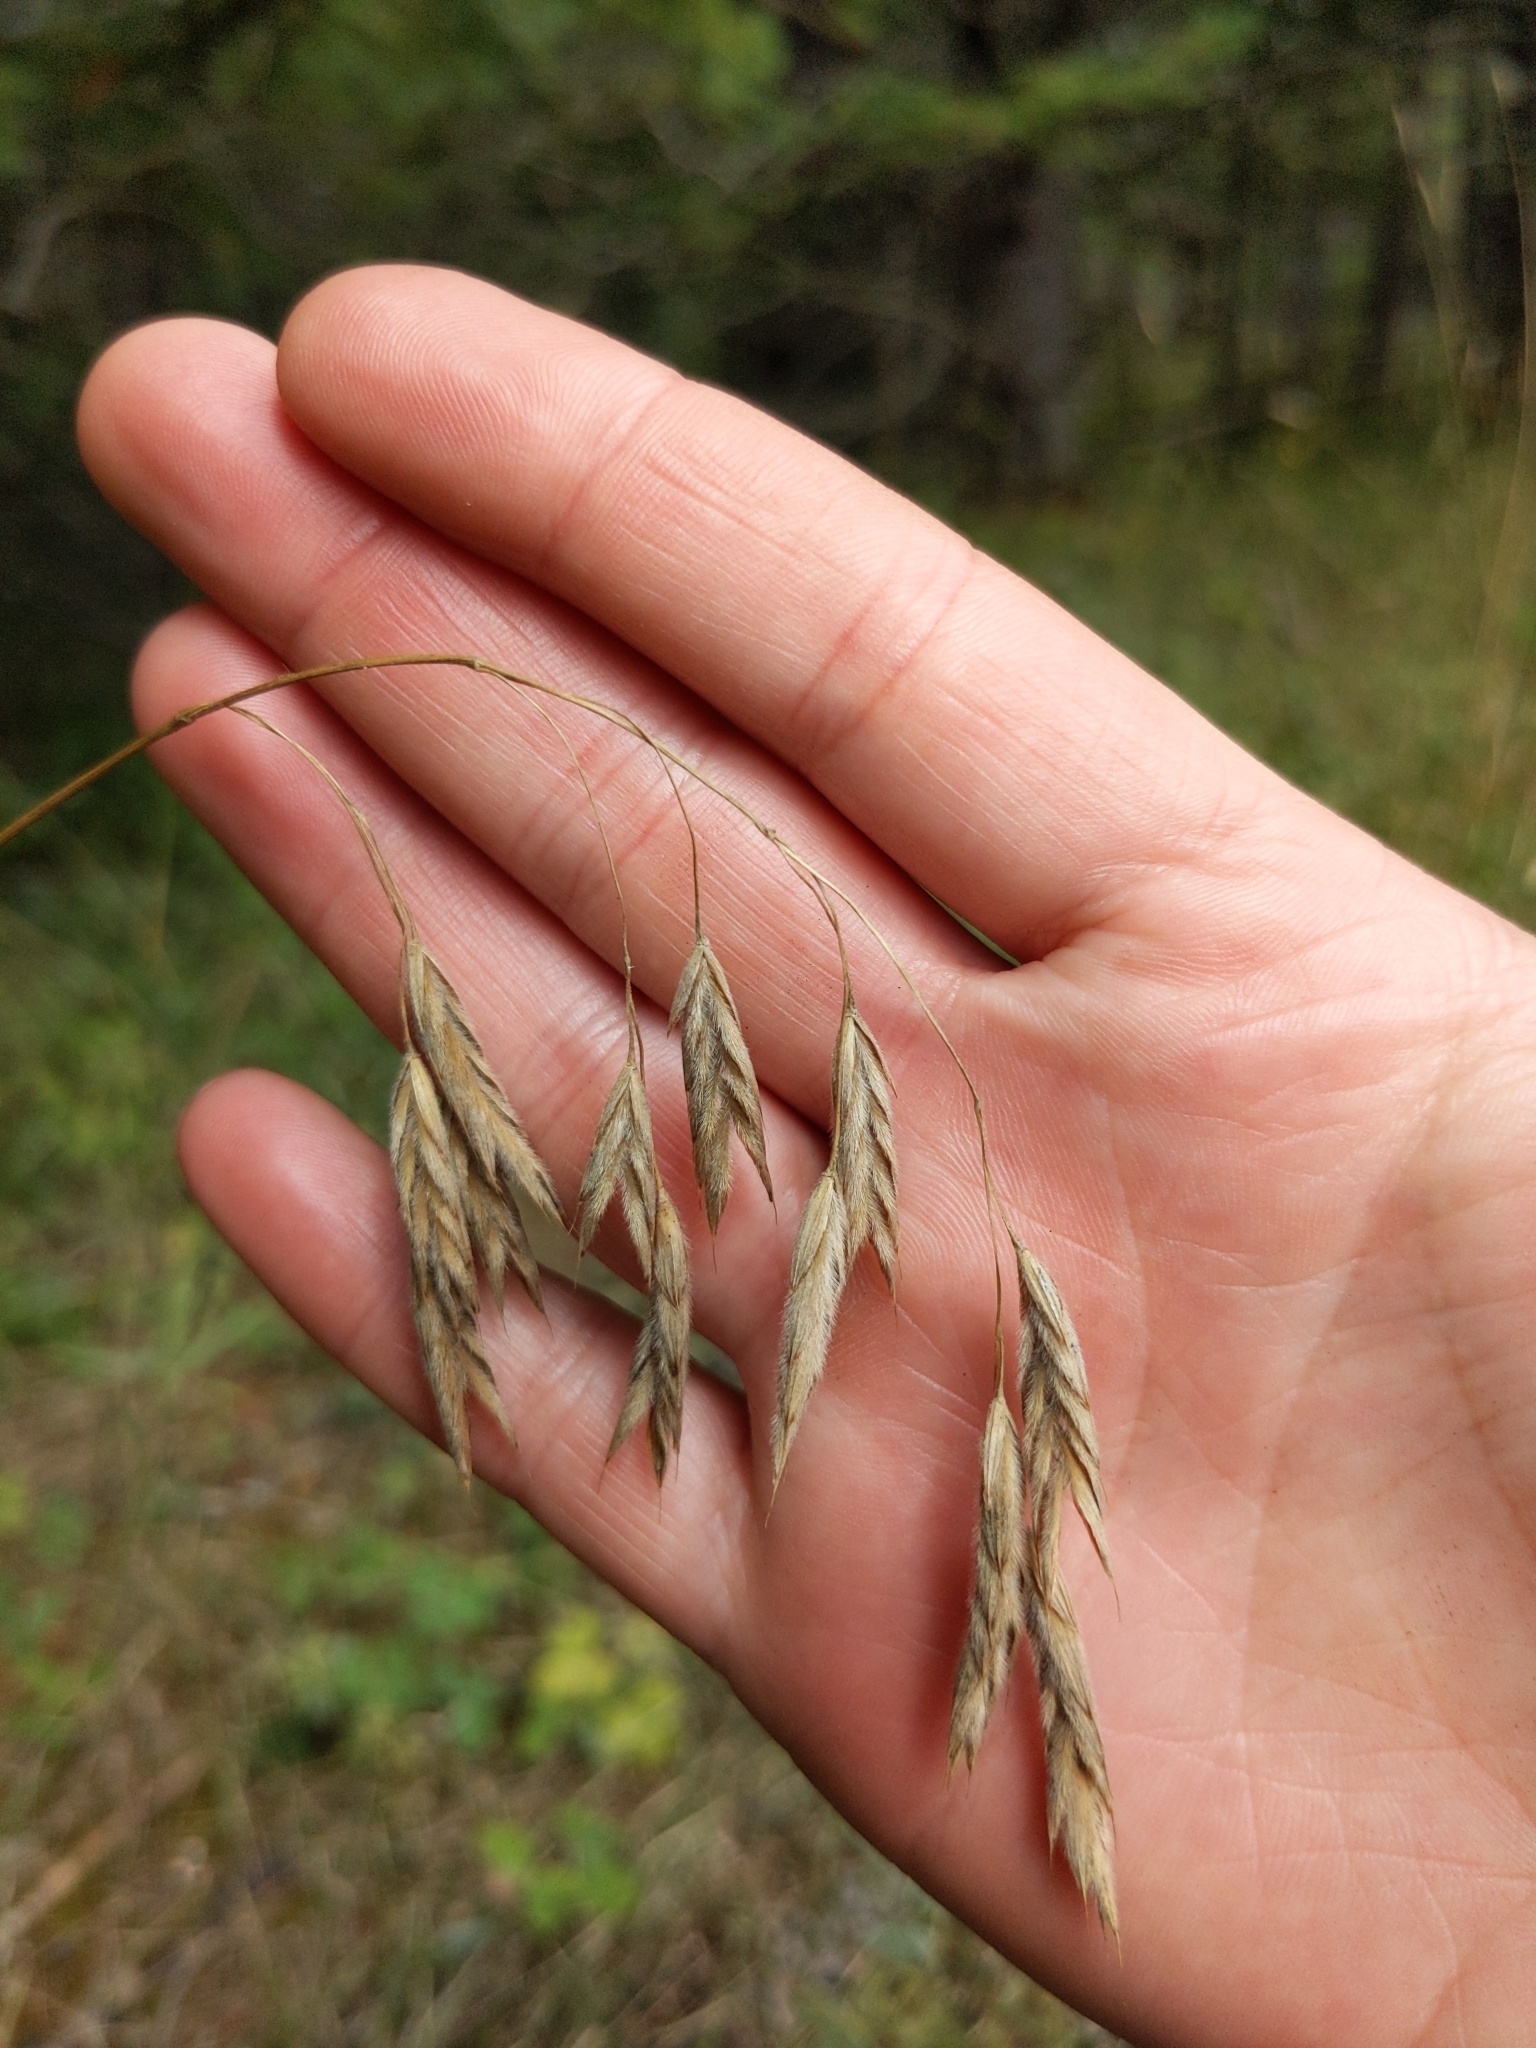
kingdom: Plantae
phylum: Tracheophyta
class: Liliopsida
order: Poales
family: Poaceae
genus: Bromus
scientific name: Bromus kalmii
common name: Kalm brome
